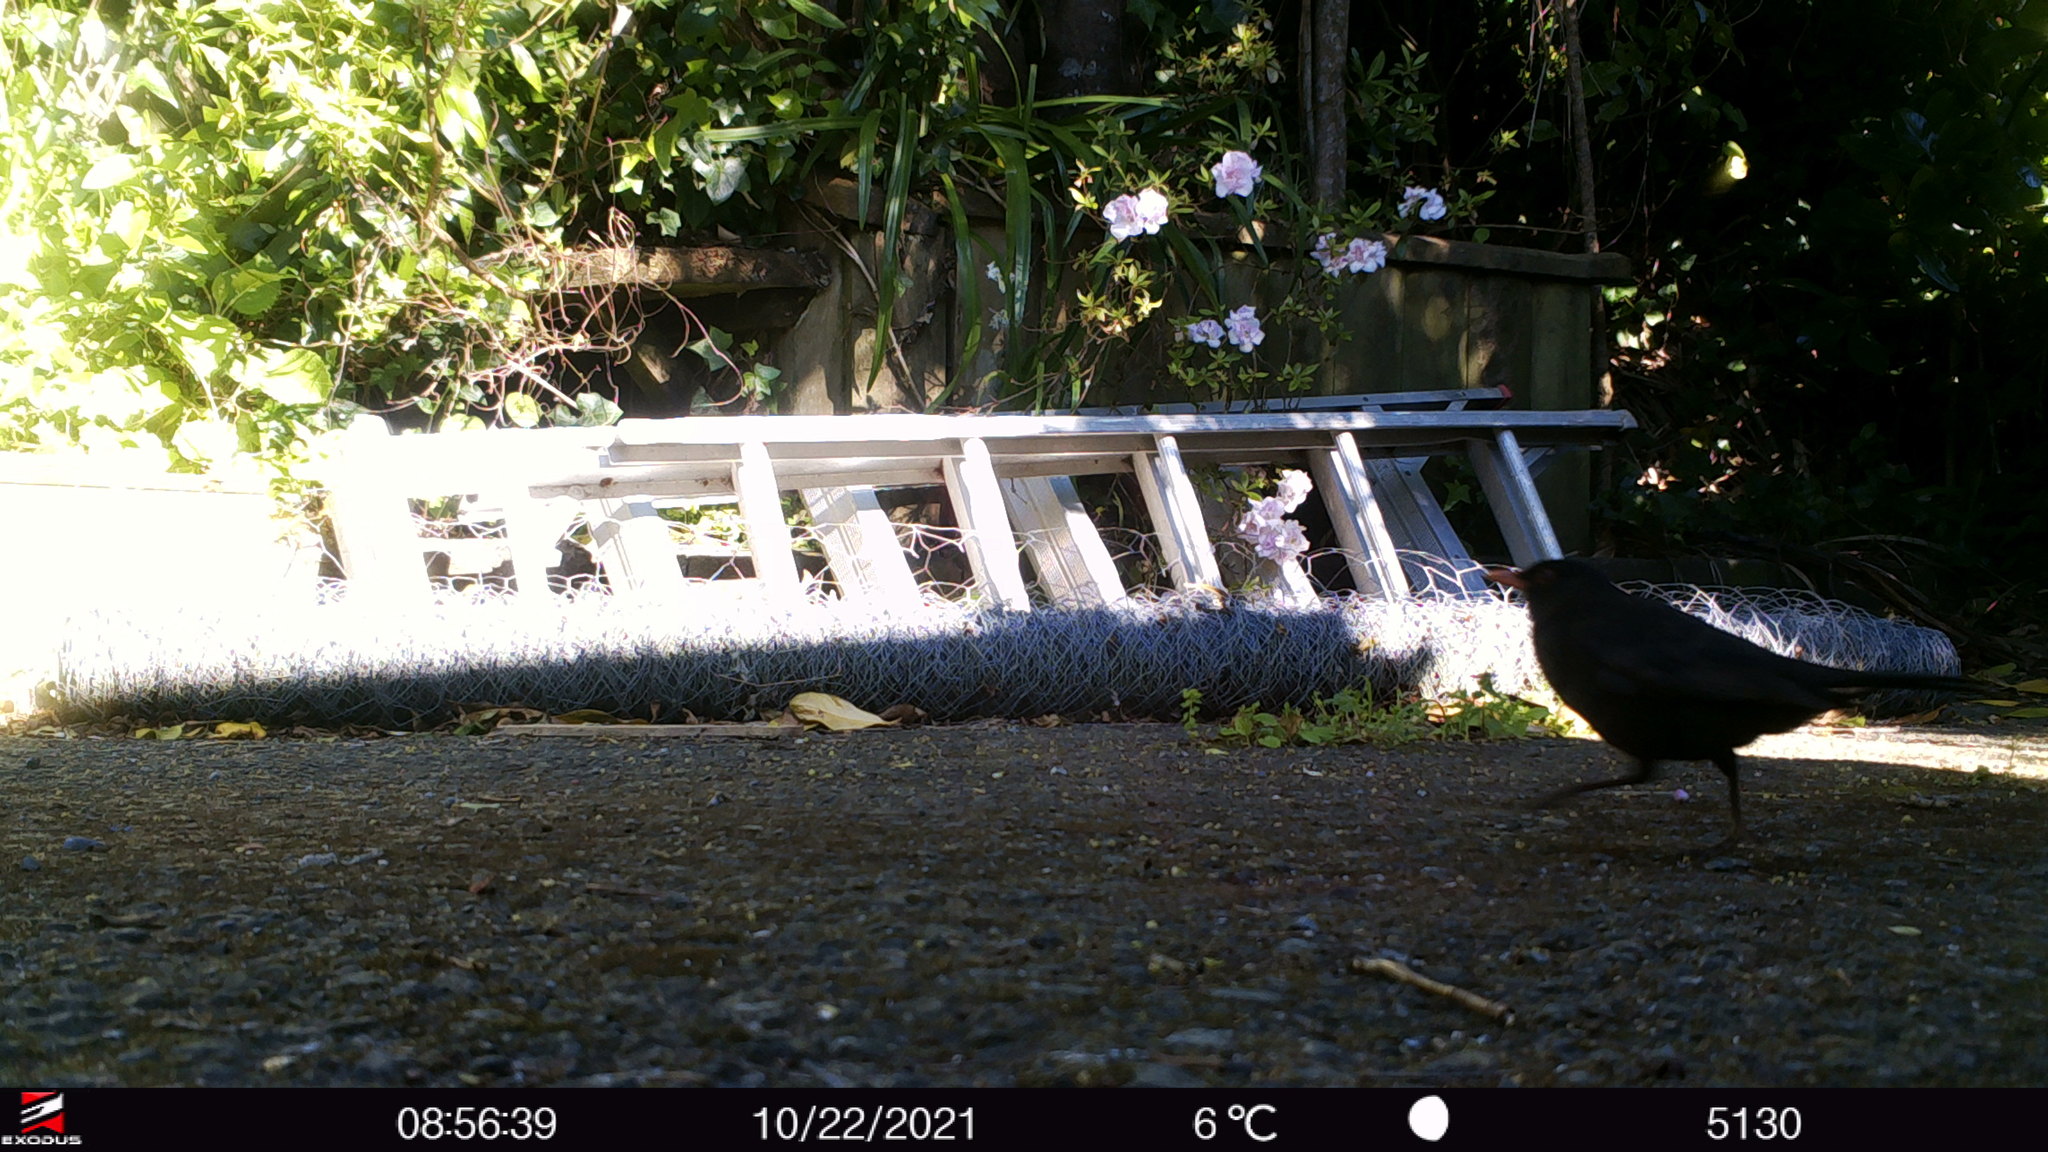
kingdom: Animalia
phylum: Chordata
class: Aves
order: Passeriformes
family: Turdidae
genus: Turdus
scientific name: Turdus merula
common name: Common blackbird
